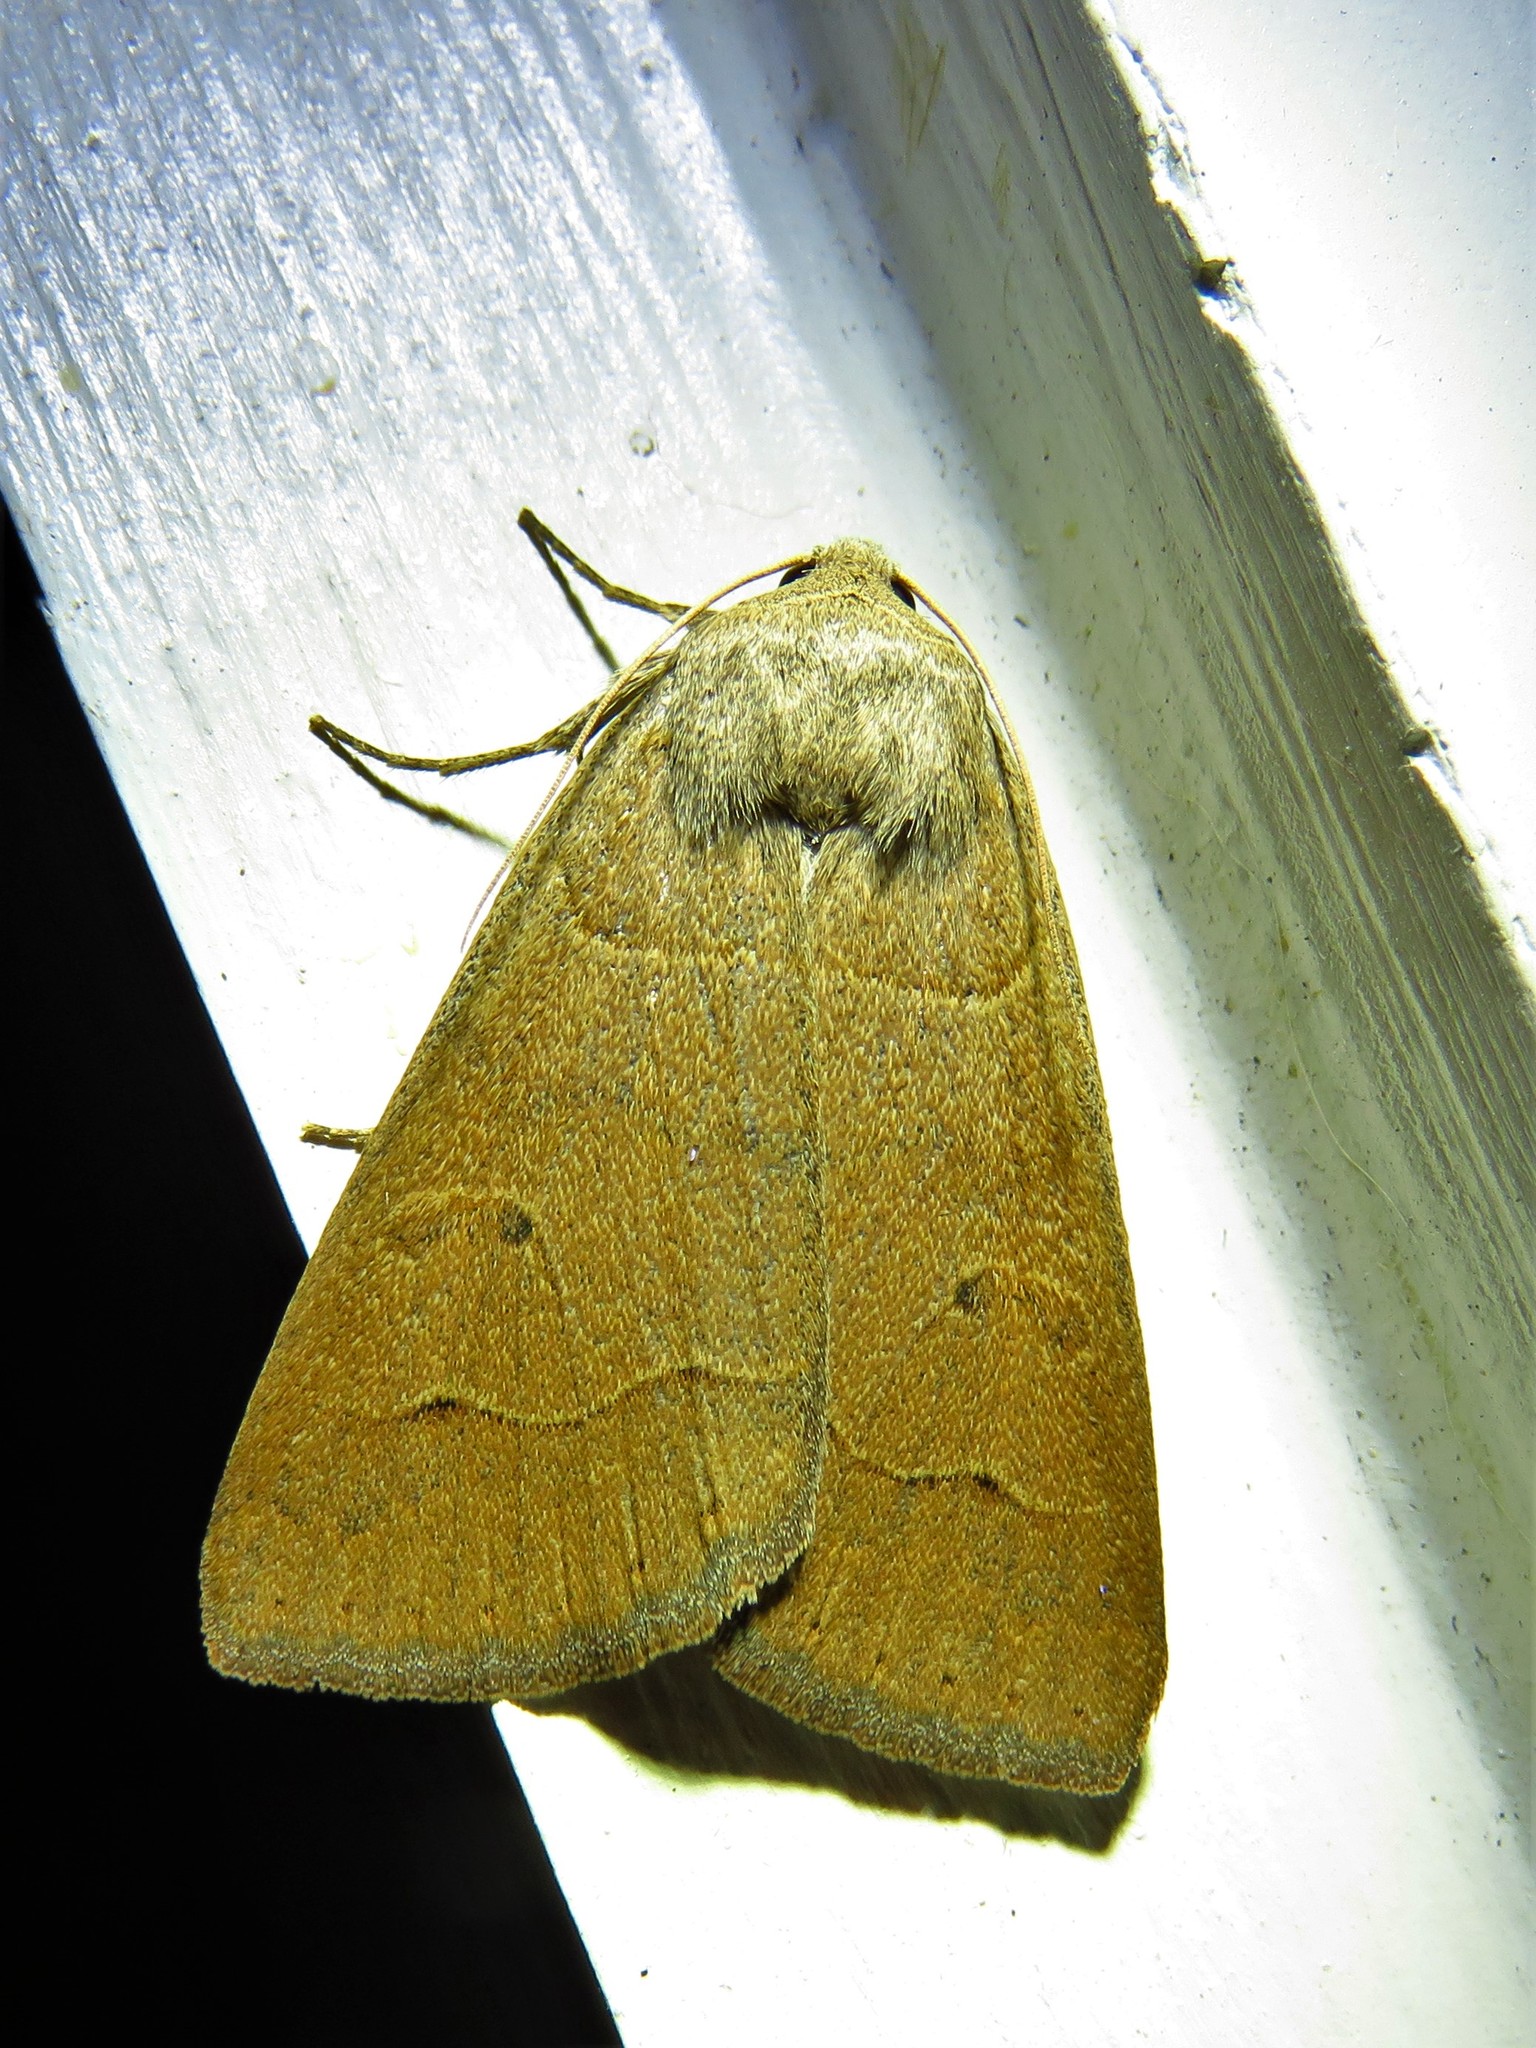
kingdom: Animalia
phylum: Arthropoda
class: Insecta
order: Lepidoptera
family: Erebidae
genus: Phoberia
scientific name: Phoberia atomaris
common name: Common oak moth
